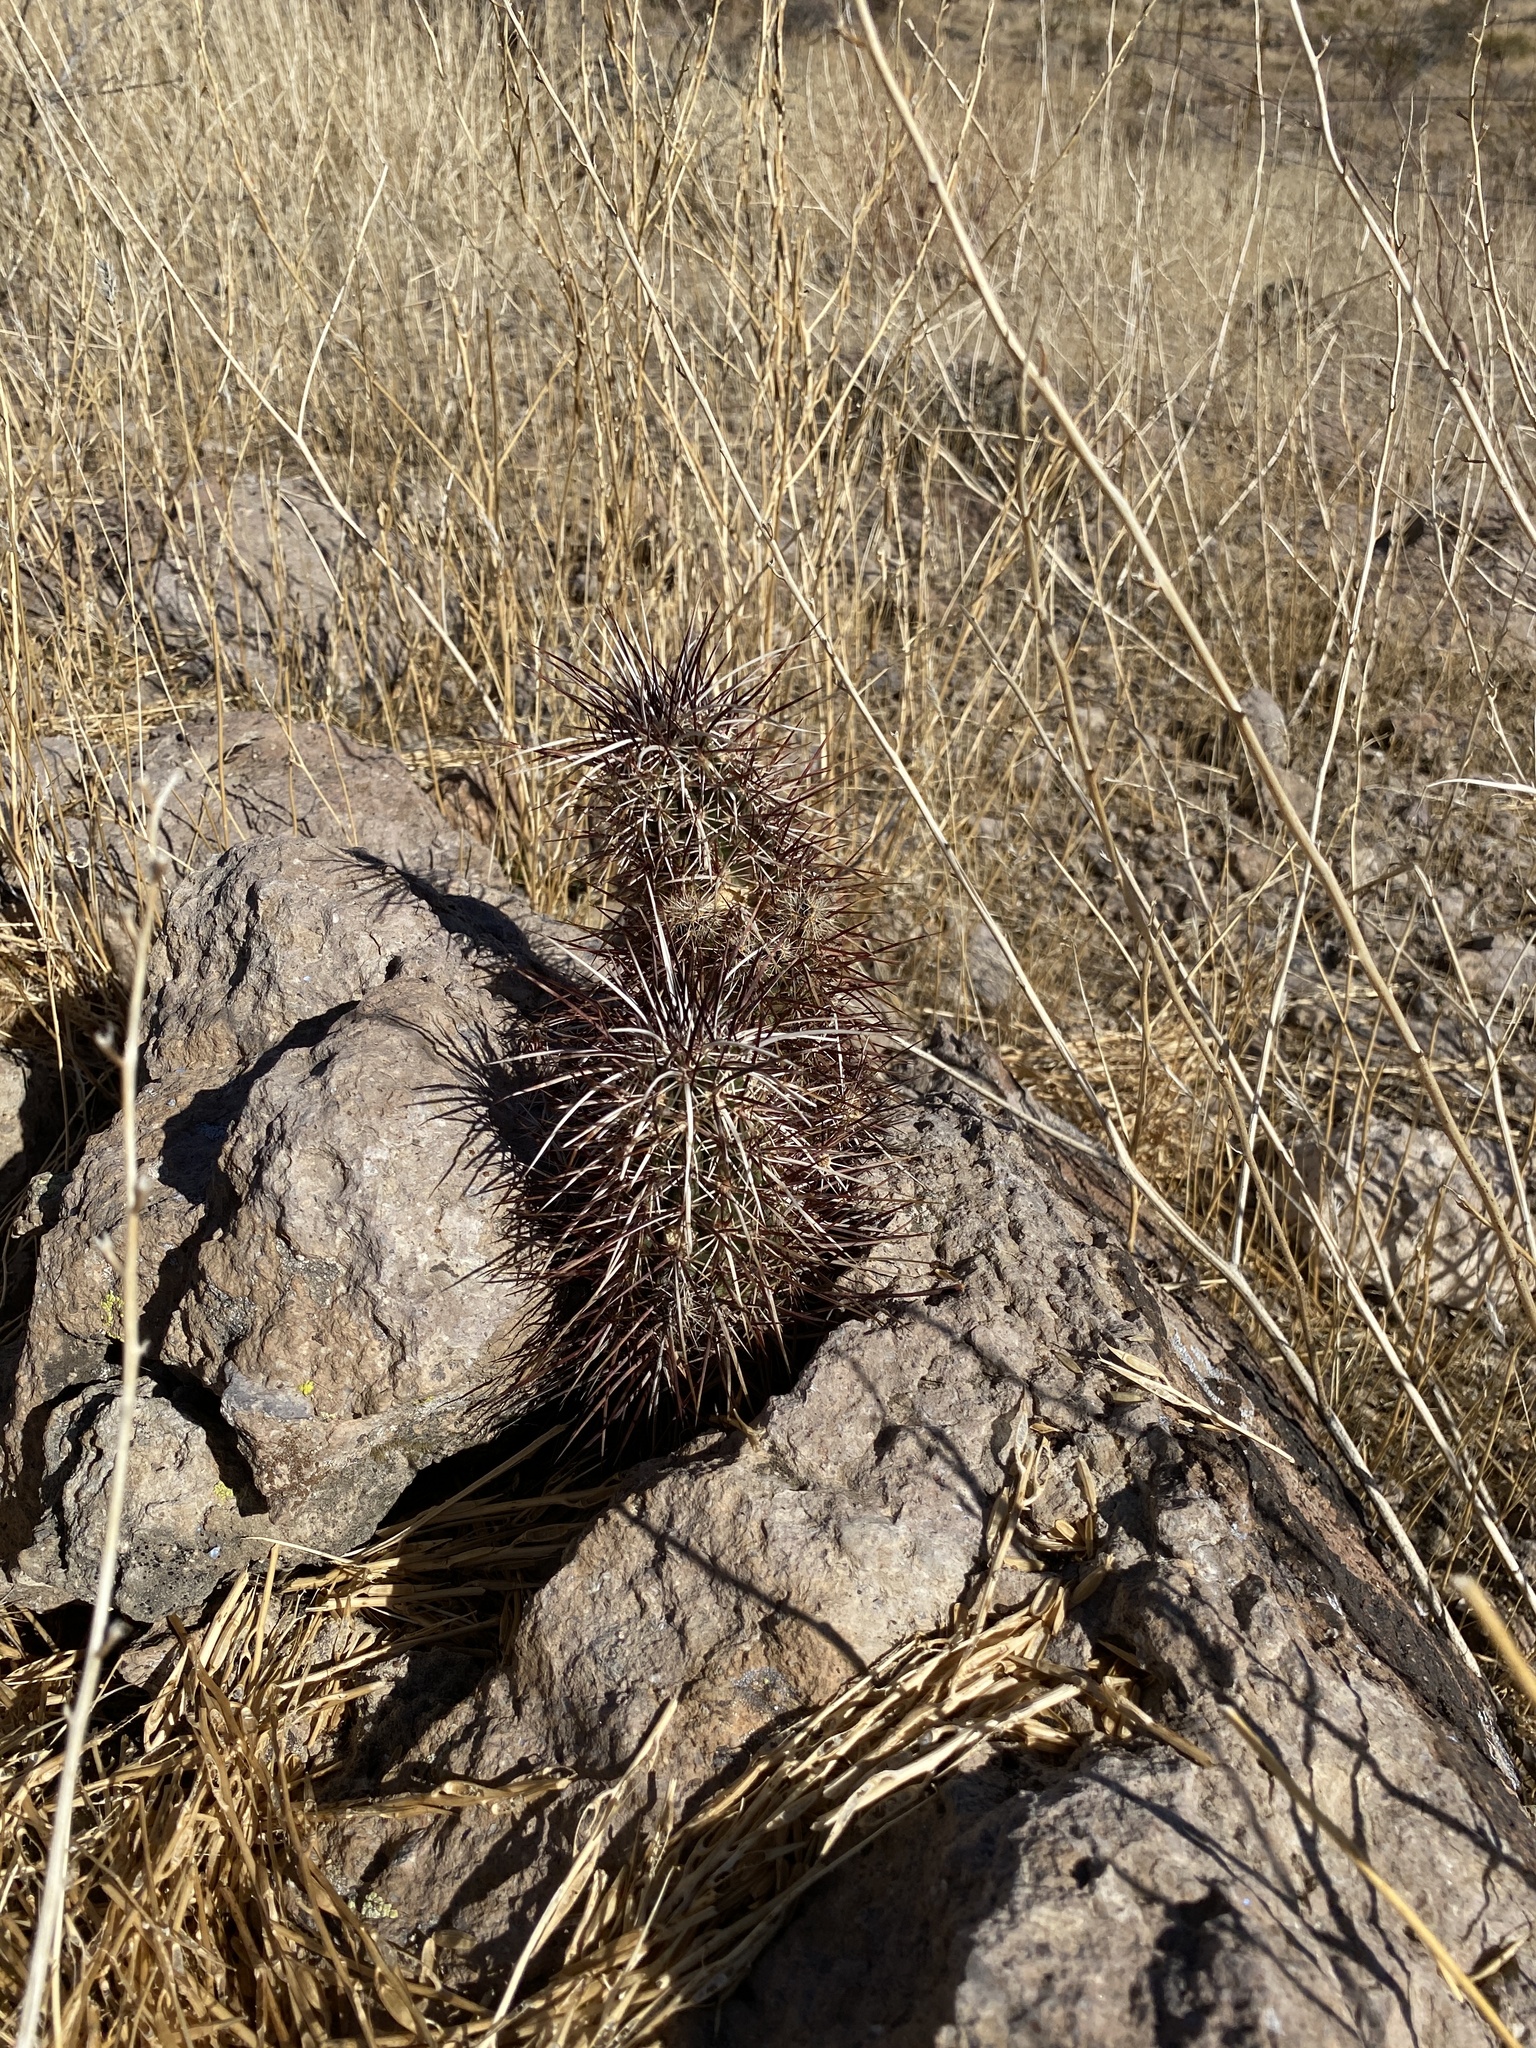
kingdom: Plantae
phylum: Tracheophyta
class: Magnoliopsida
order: Caryophyllales
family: Cactaceae
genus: Echinocereus
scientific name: Echinocereus engelmannii
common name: Engelmann's hedgehog cactus
